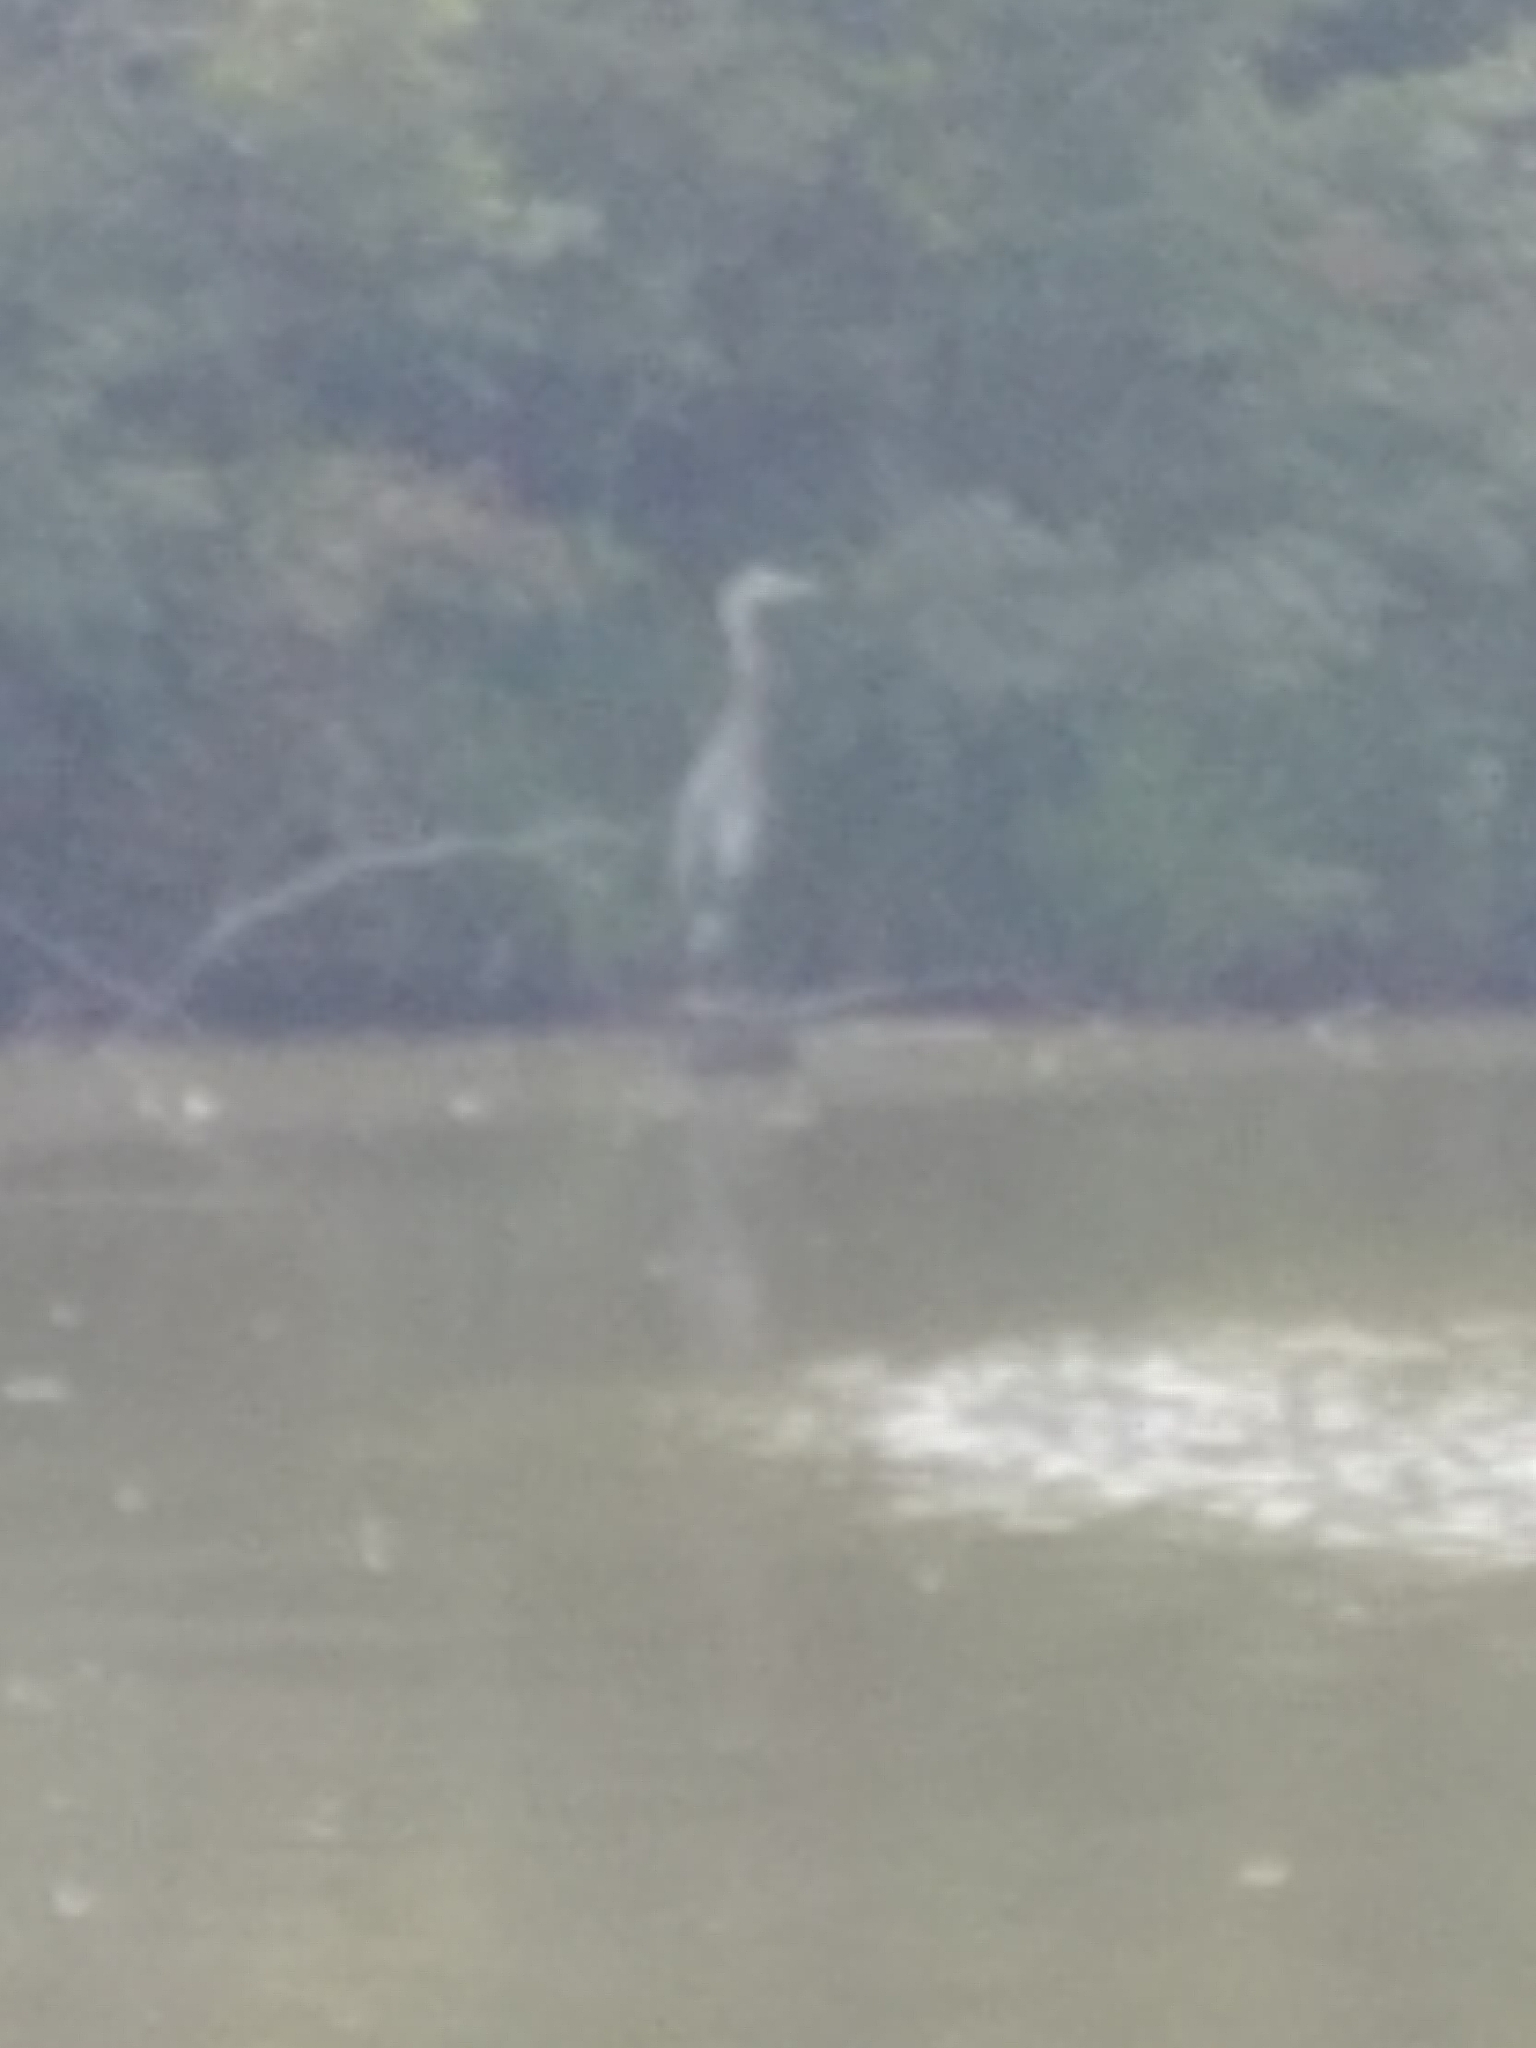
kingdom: Animalia
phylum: Chordata
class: Aves
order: Pelecaniformes
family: Ardeidae
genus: Ardea
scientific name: Ardea herodias
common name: Great blue heron
